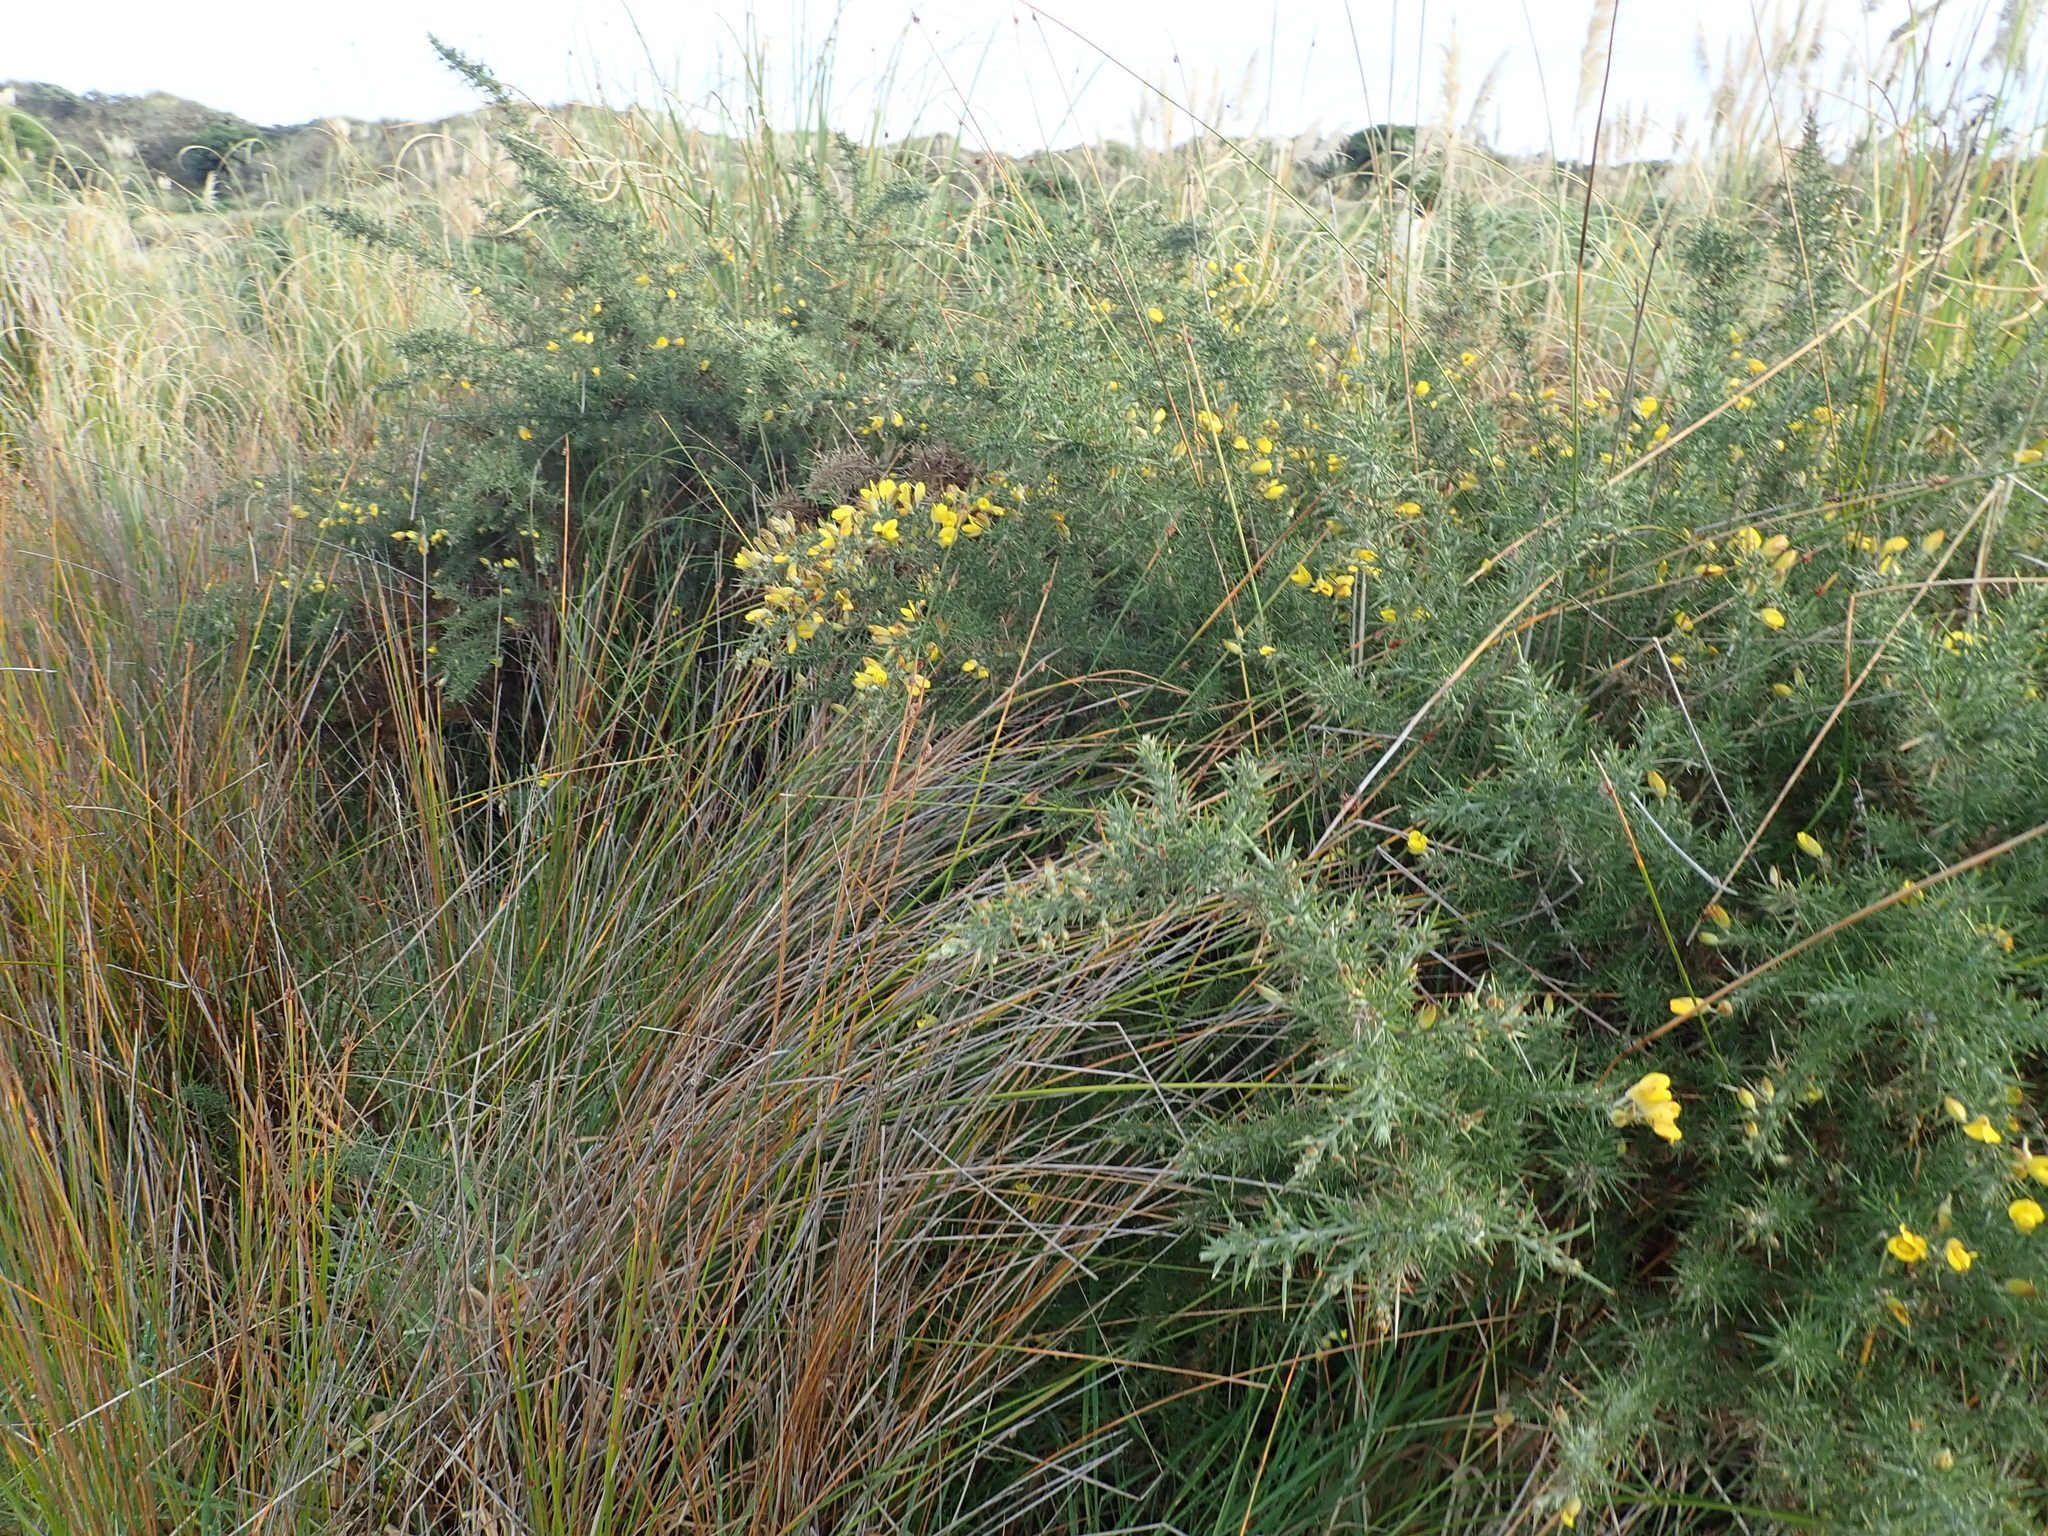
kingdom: Plantae
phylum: Tracheophyta
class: Magnoliopsida
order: Fabales
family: Fabaceae
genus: Ulex
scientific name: Ulex europaeus
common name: Common gorse
